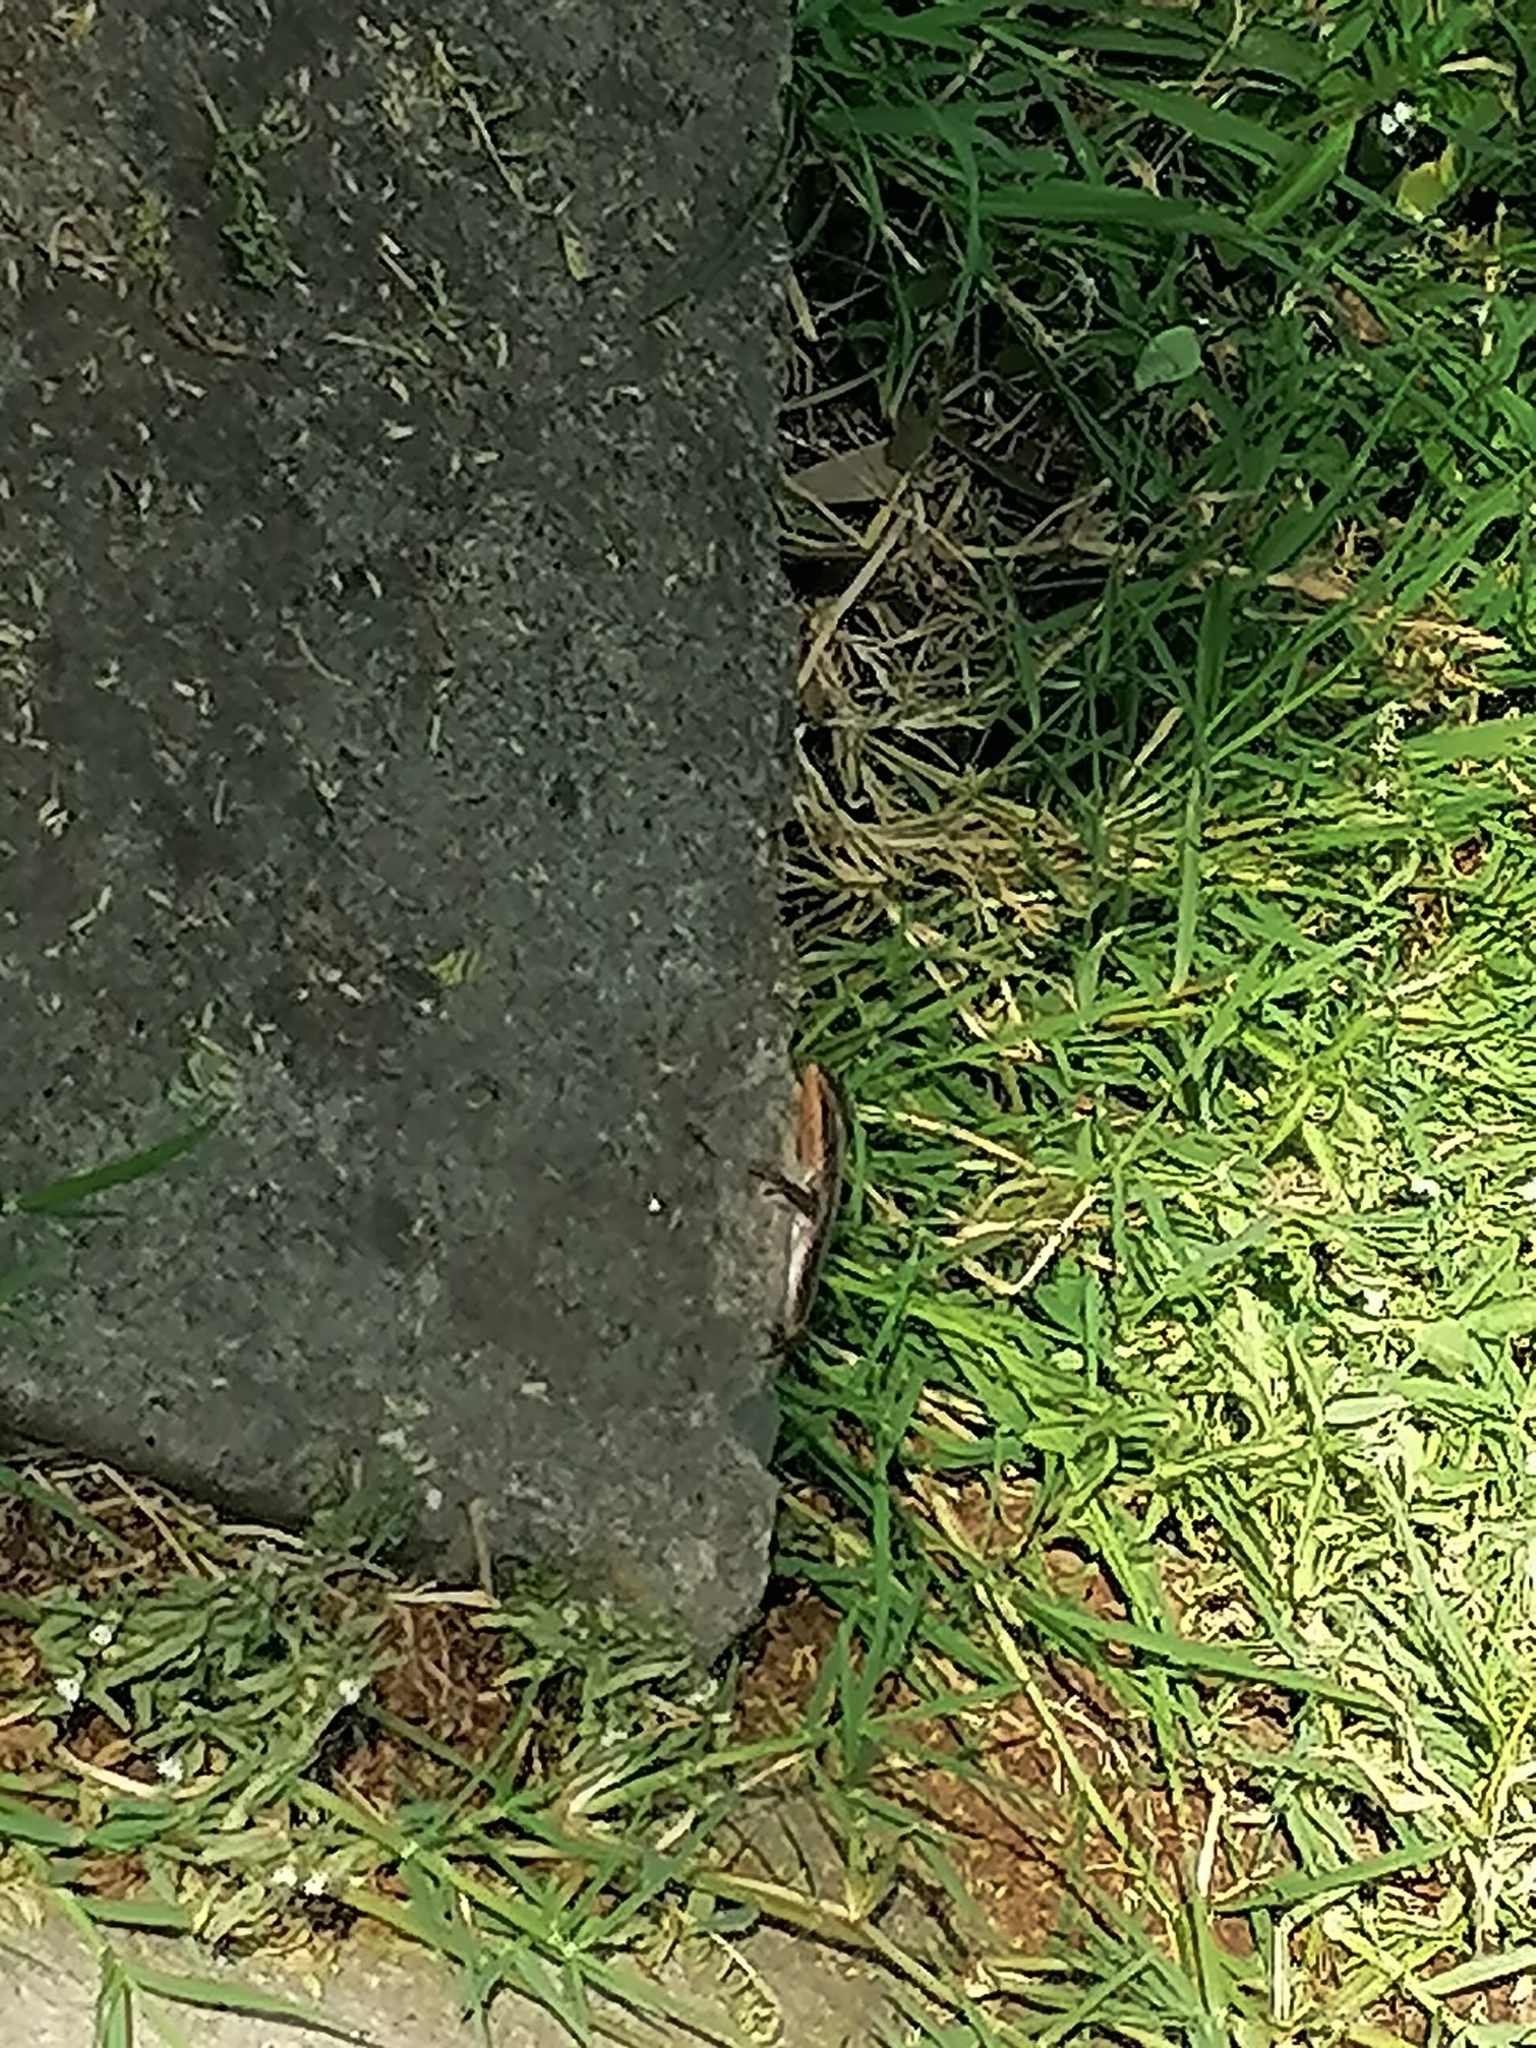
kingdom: Animalia
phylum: Chordata
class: Squamata
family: Scincidae
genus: Trachylepis
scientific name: Trachylepis striata
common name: African striped mabuya
